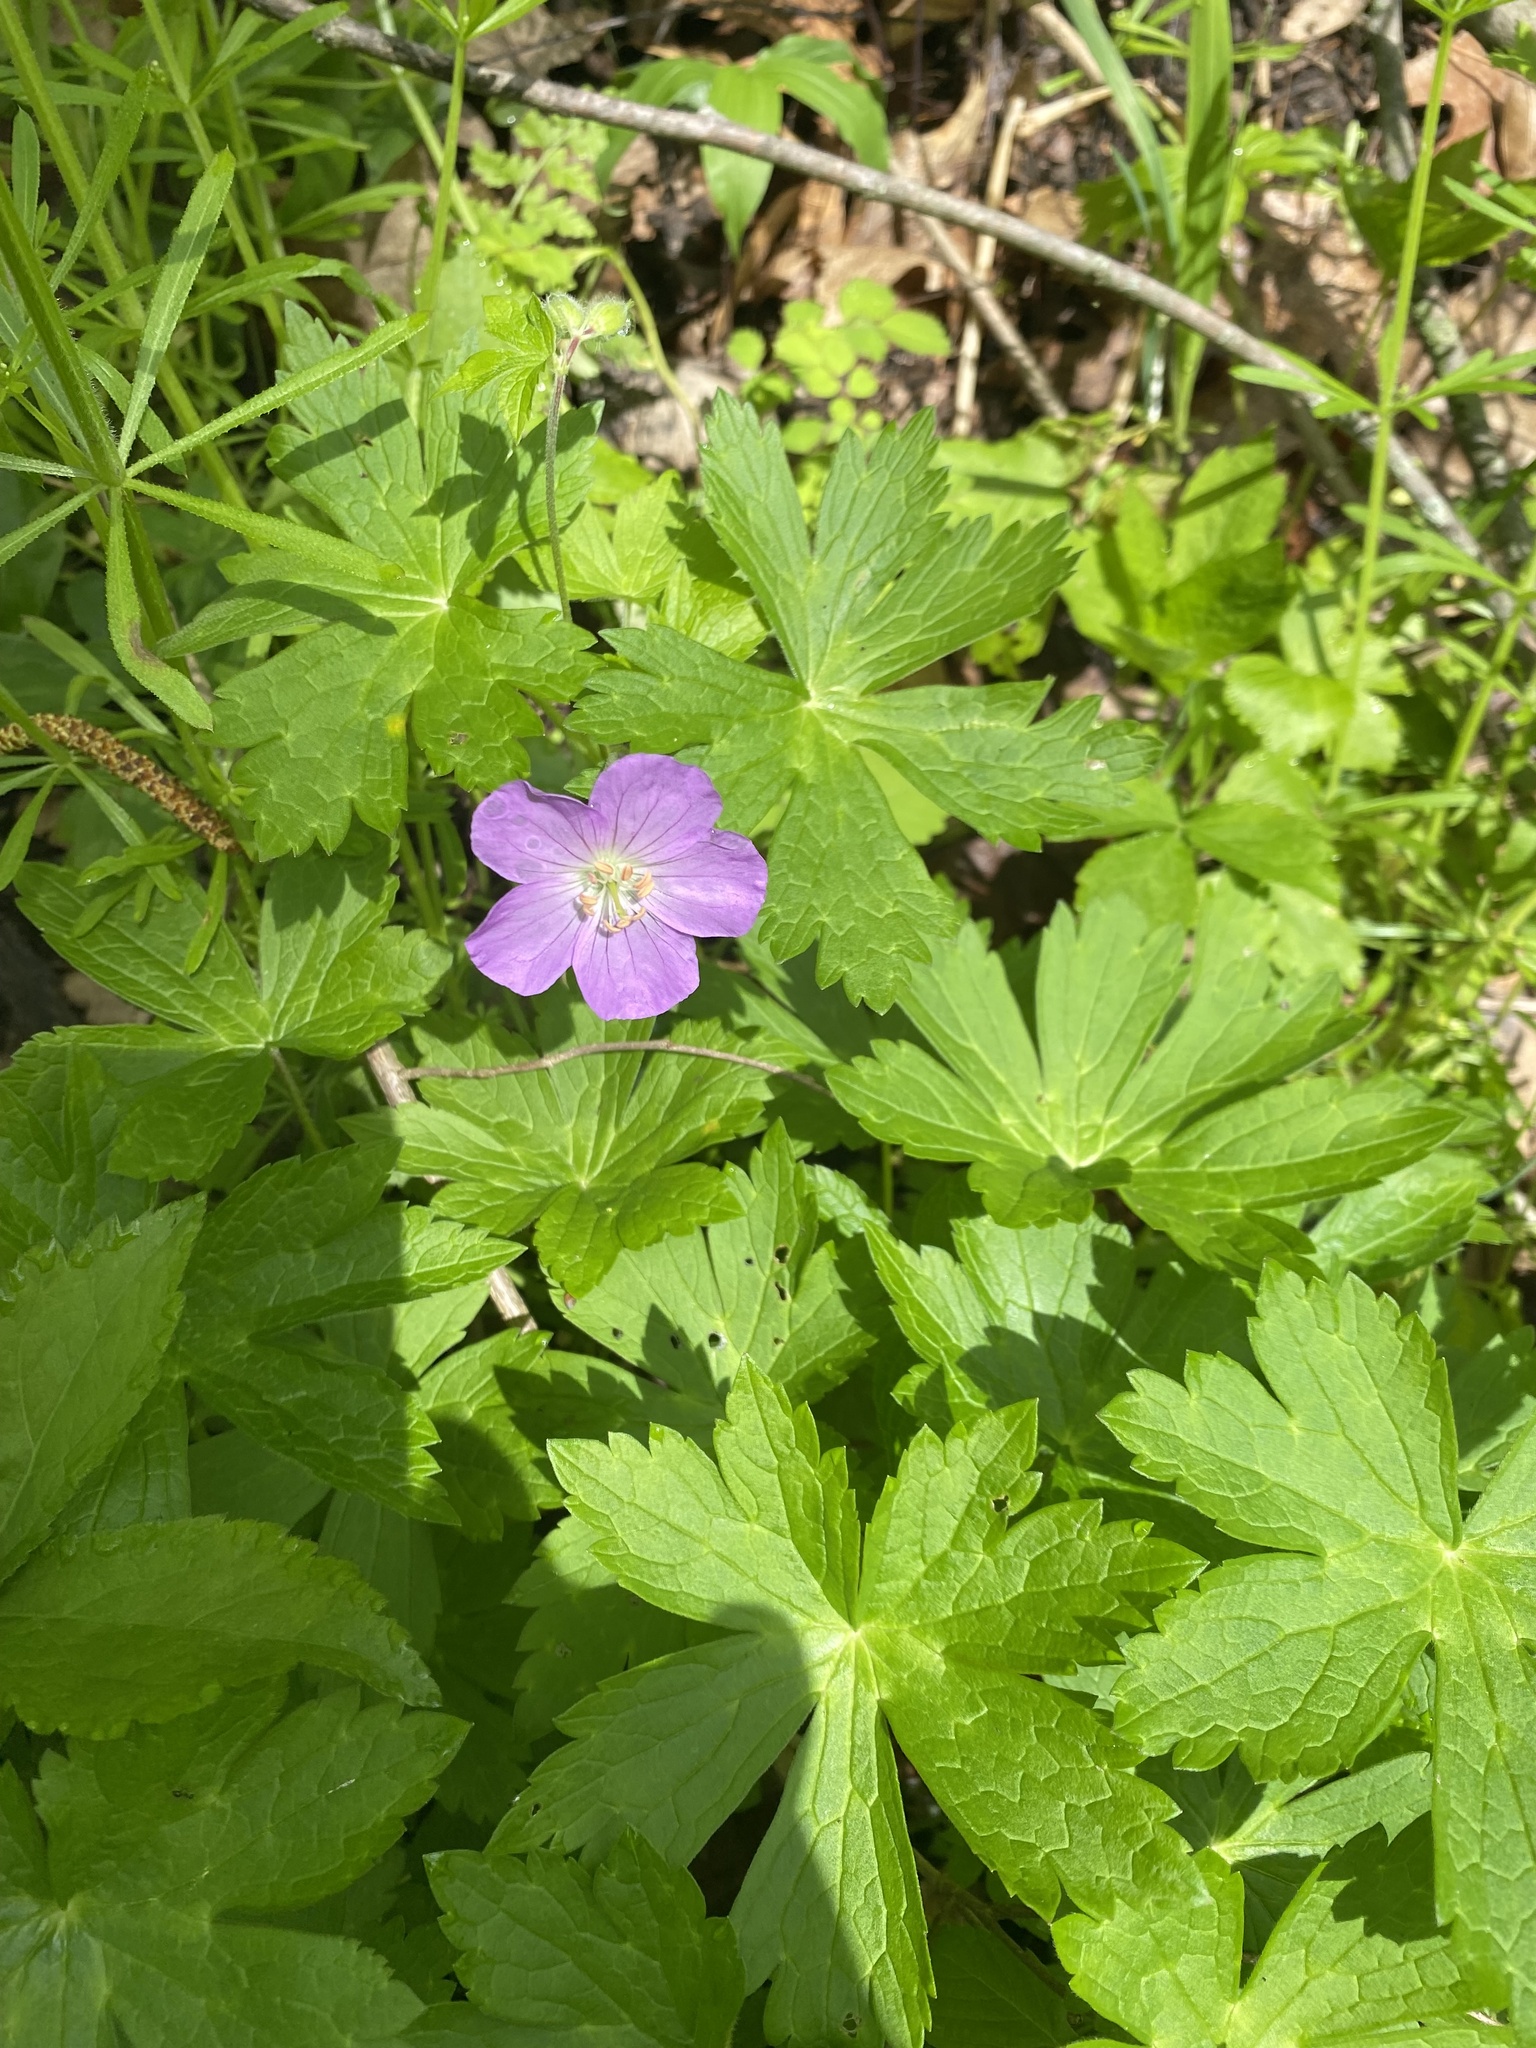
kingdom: Plantae
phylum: Tracheophyta
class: Magnoliopsida
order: Geraniales
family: Geraniaceae
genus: Geranium
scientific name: Geranium maculatum
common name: Spotted geranium
